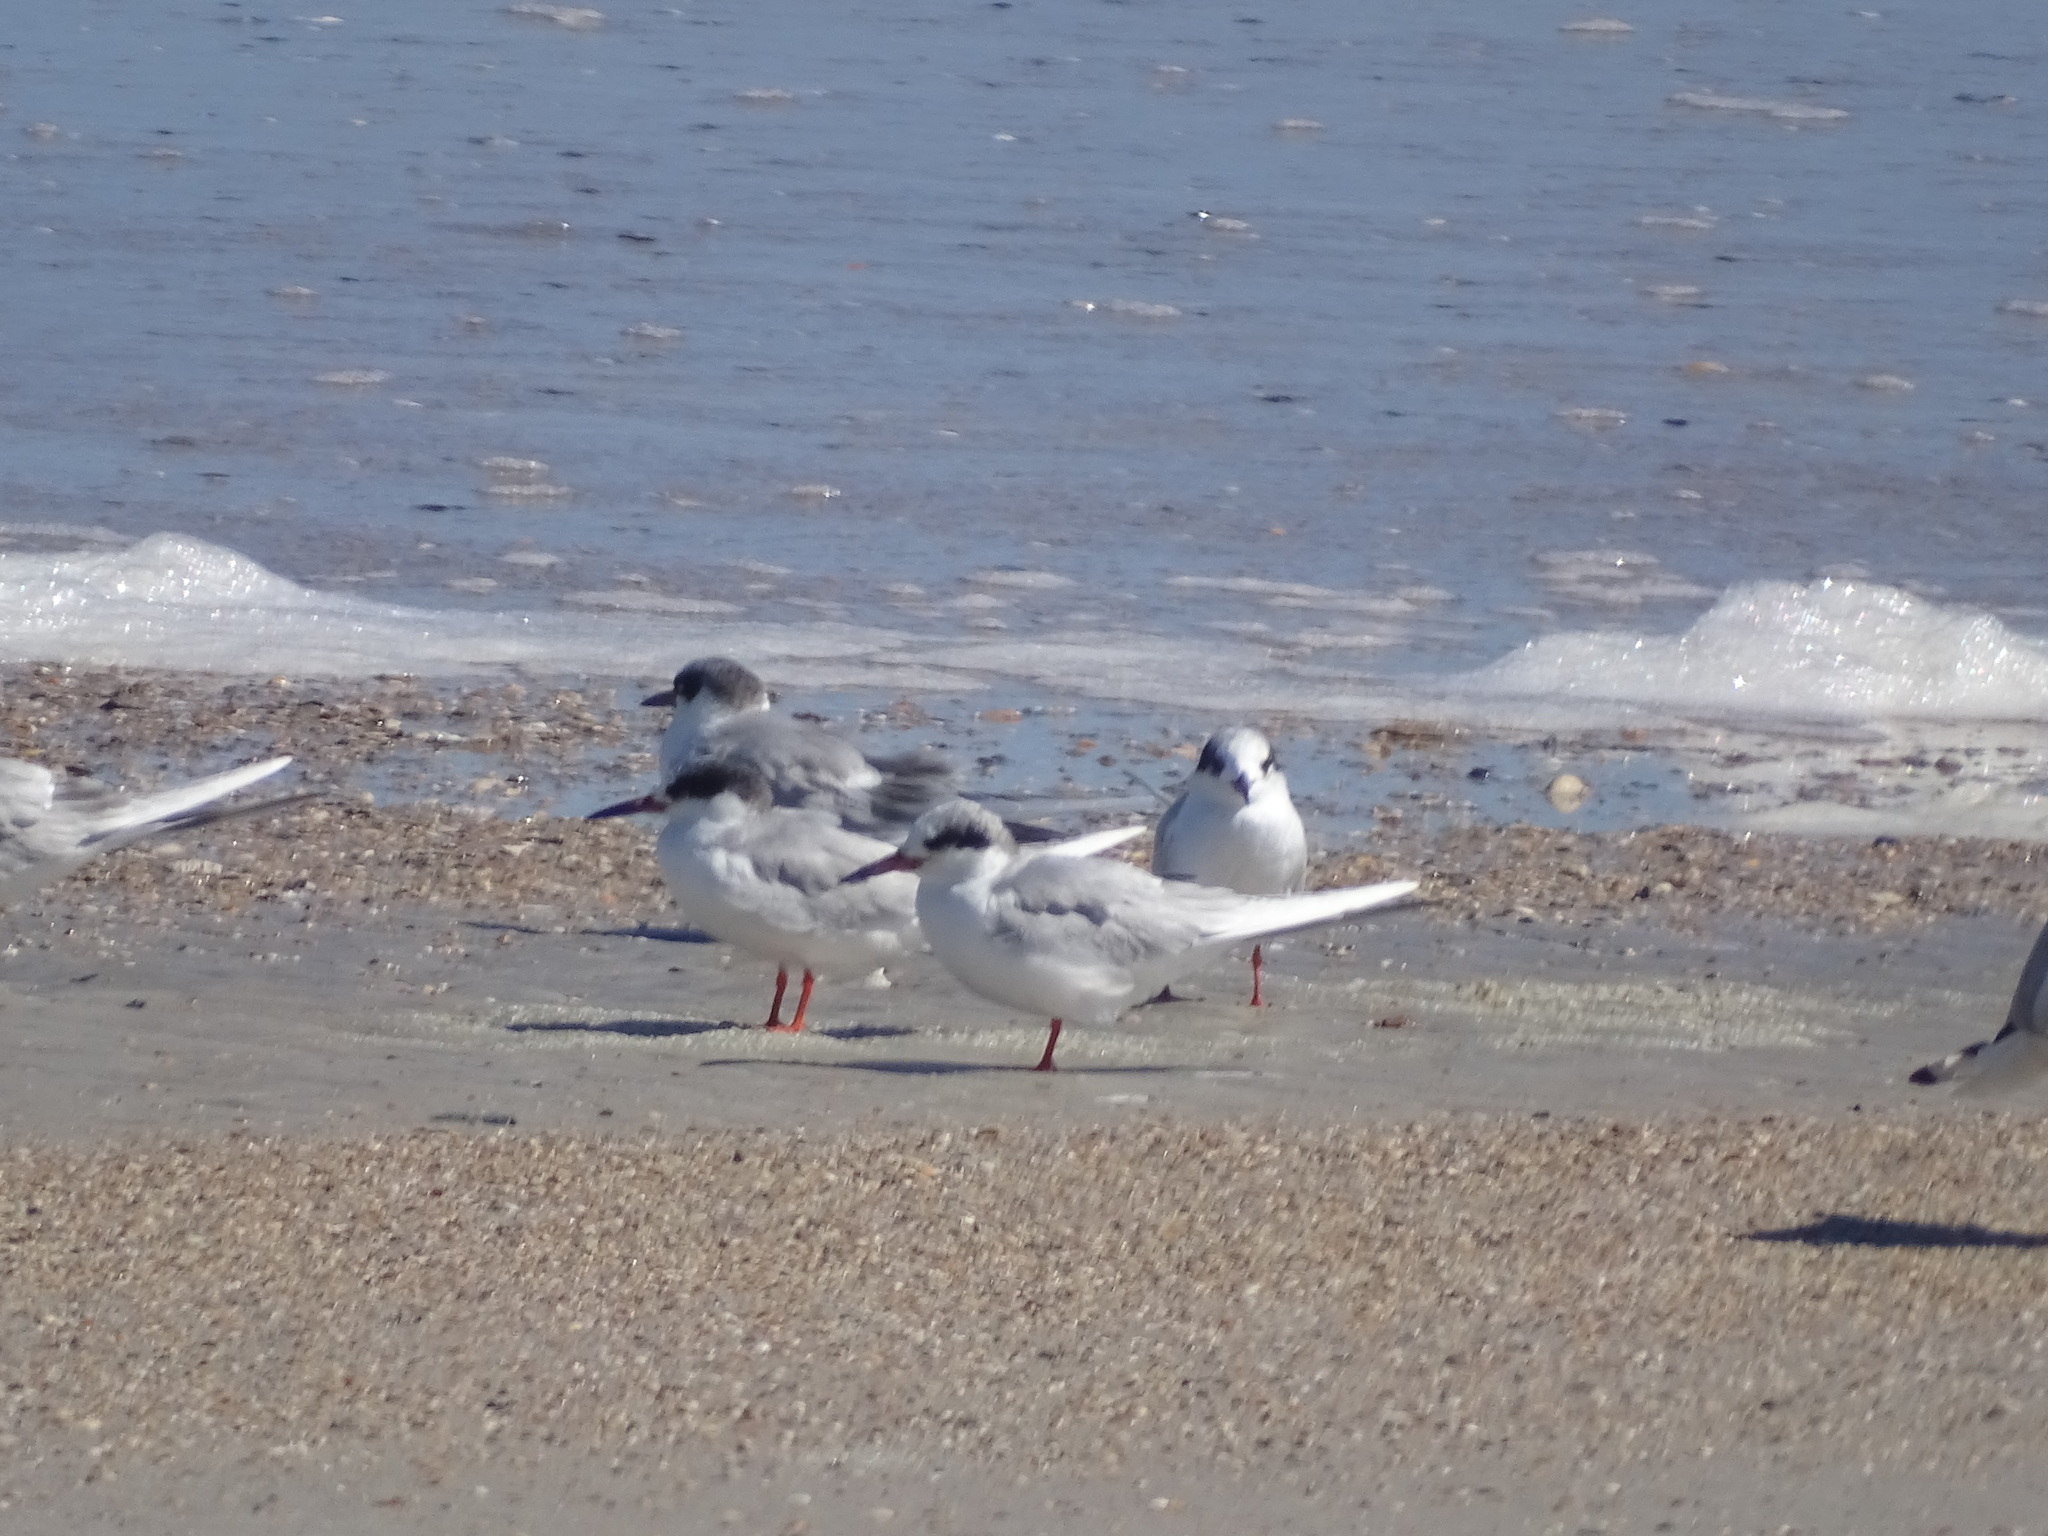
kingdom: Animalia
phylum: Chordata
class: Aves
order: Charadriiformes
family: Laridae
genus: Sterna
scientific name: Sterna forsteri
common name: Forster's tern
